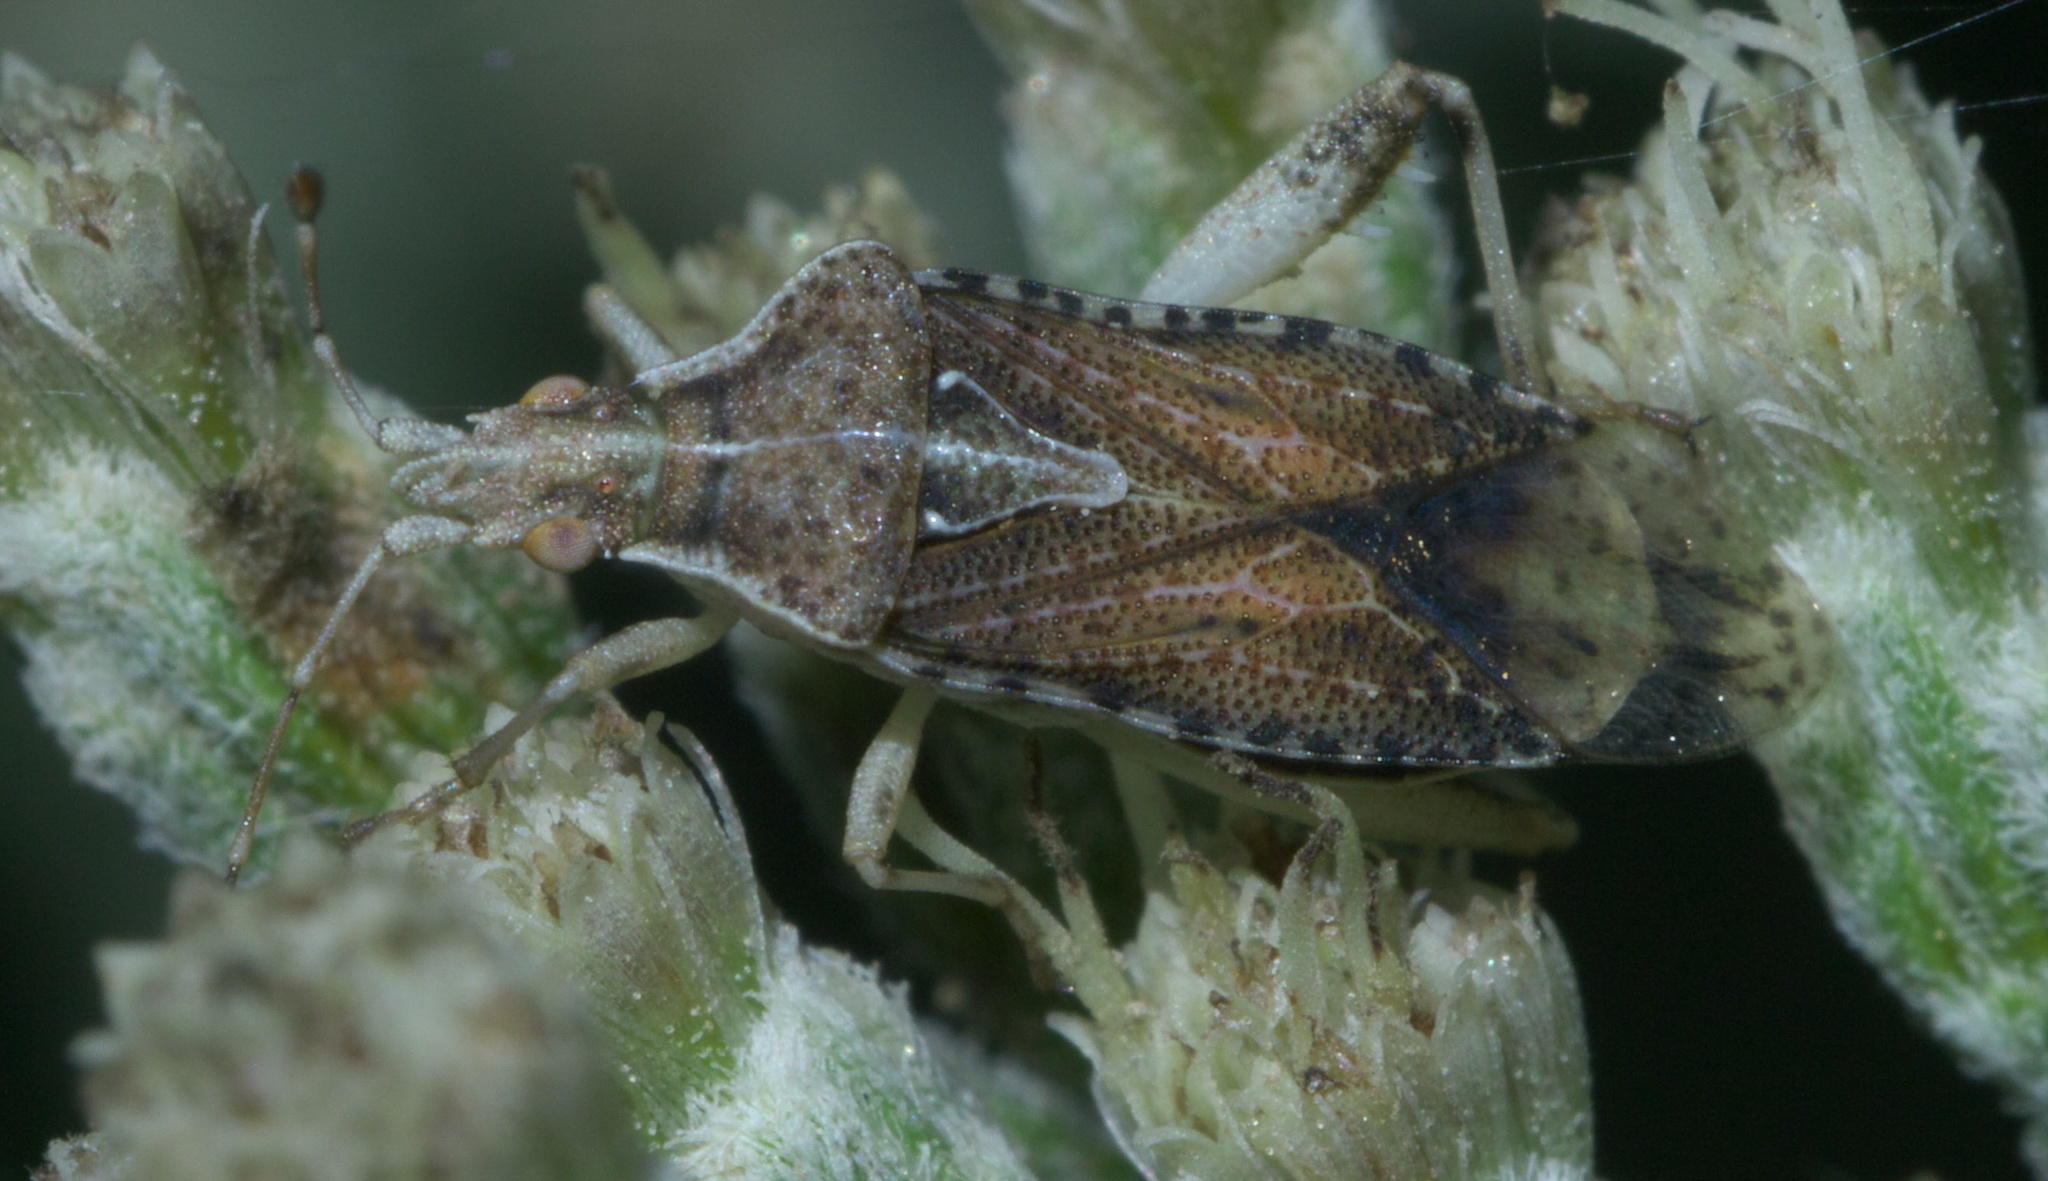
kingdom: Animalia
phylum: Arthropoda
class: Insecta
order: Hemiptera
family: Rhopalidae
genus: Harmostes
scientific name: Harmostes fraterculus
